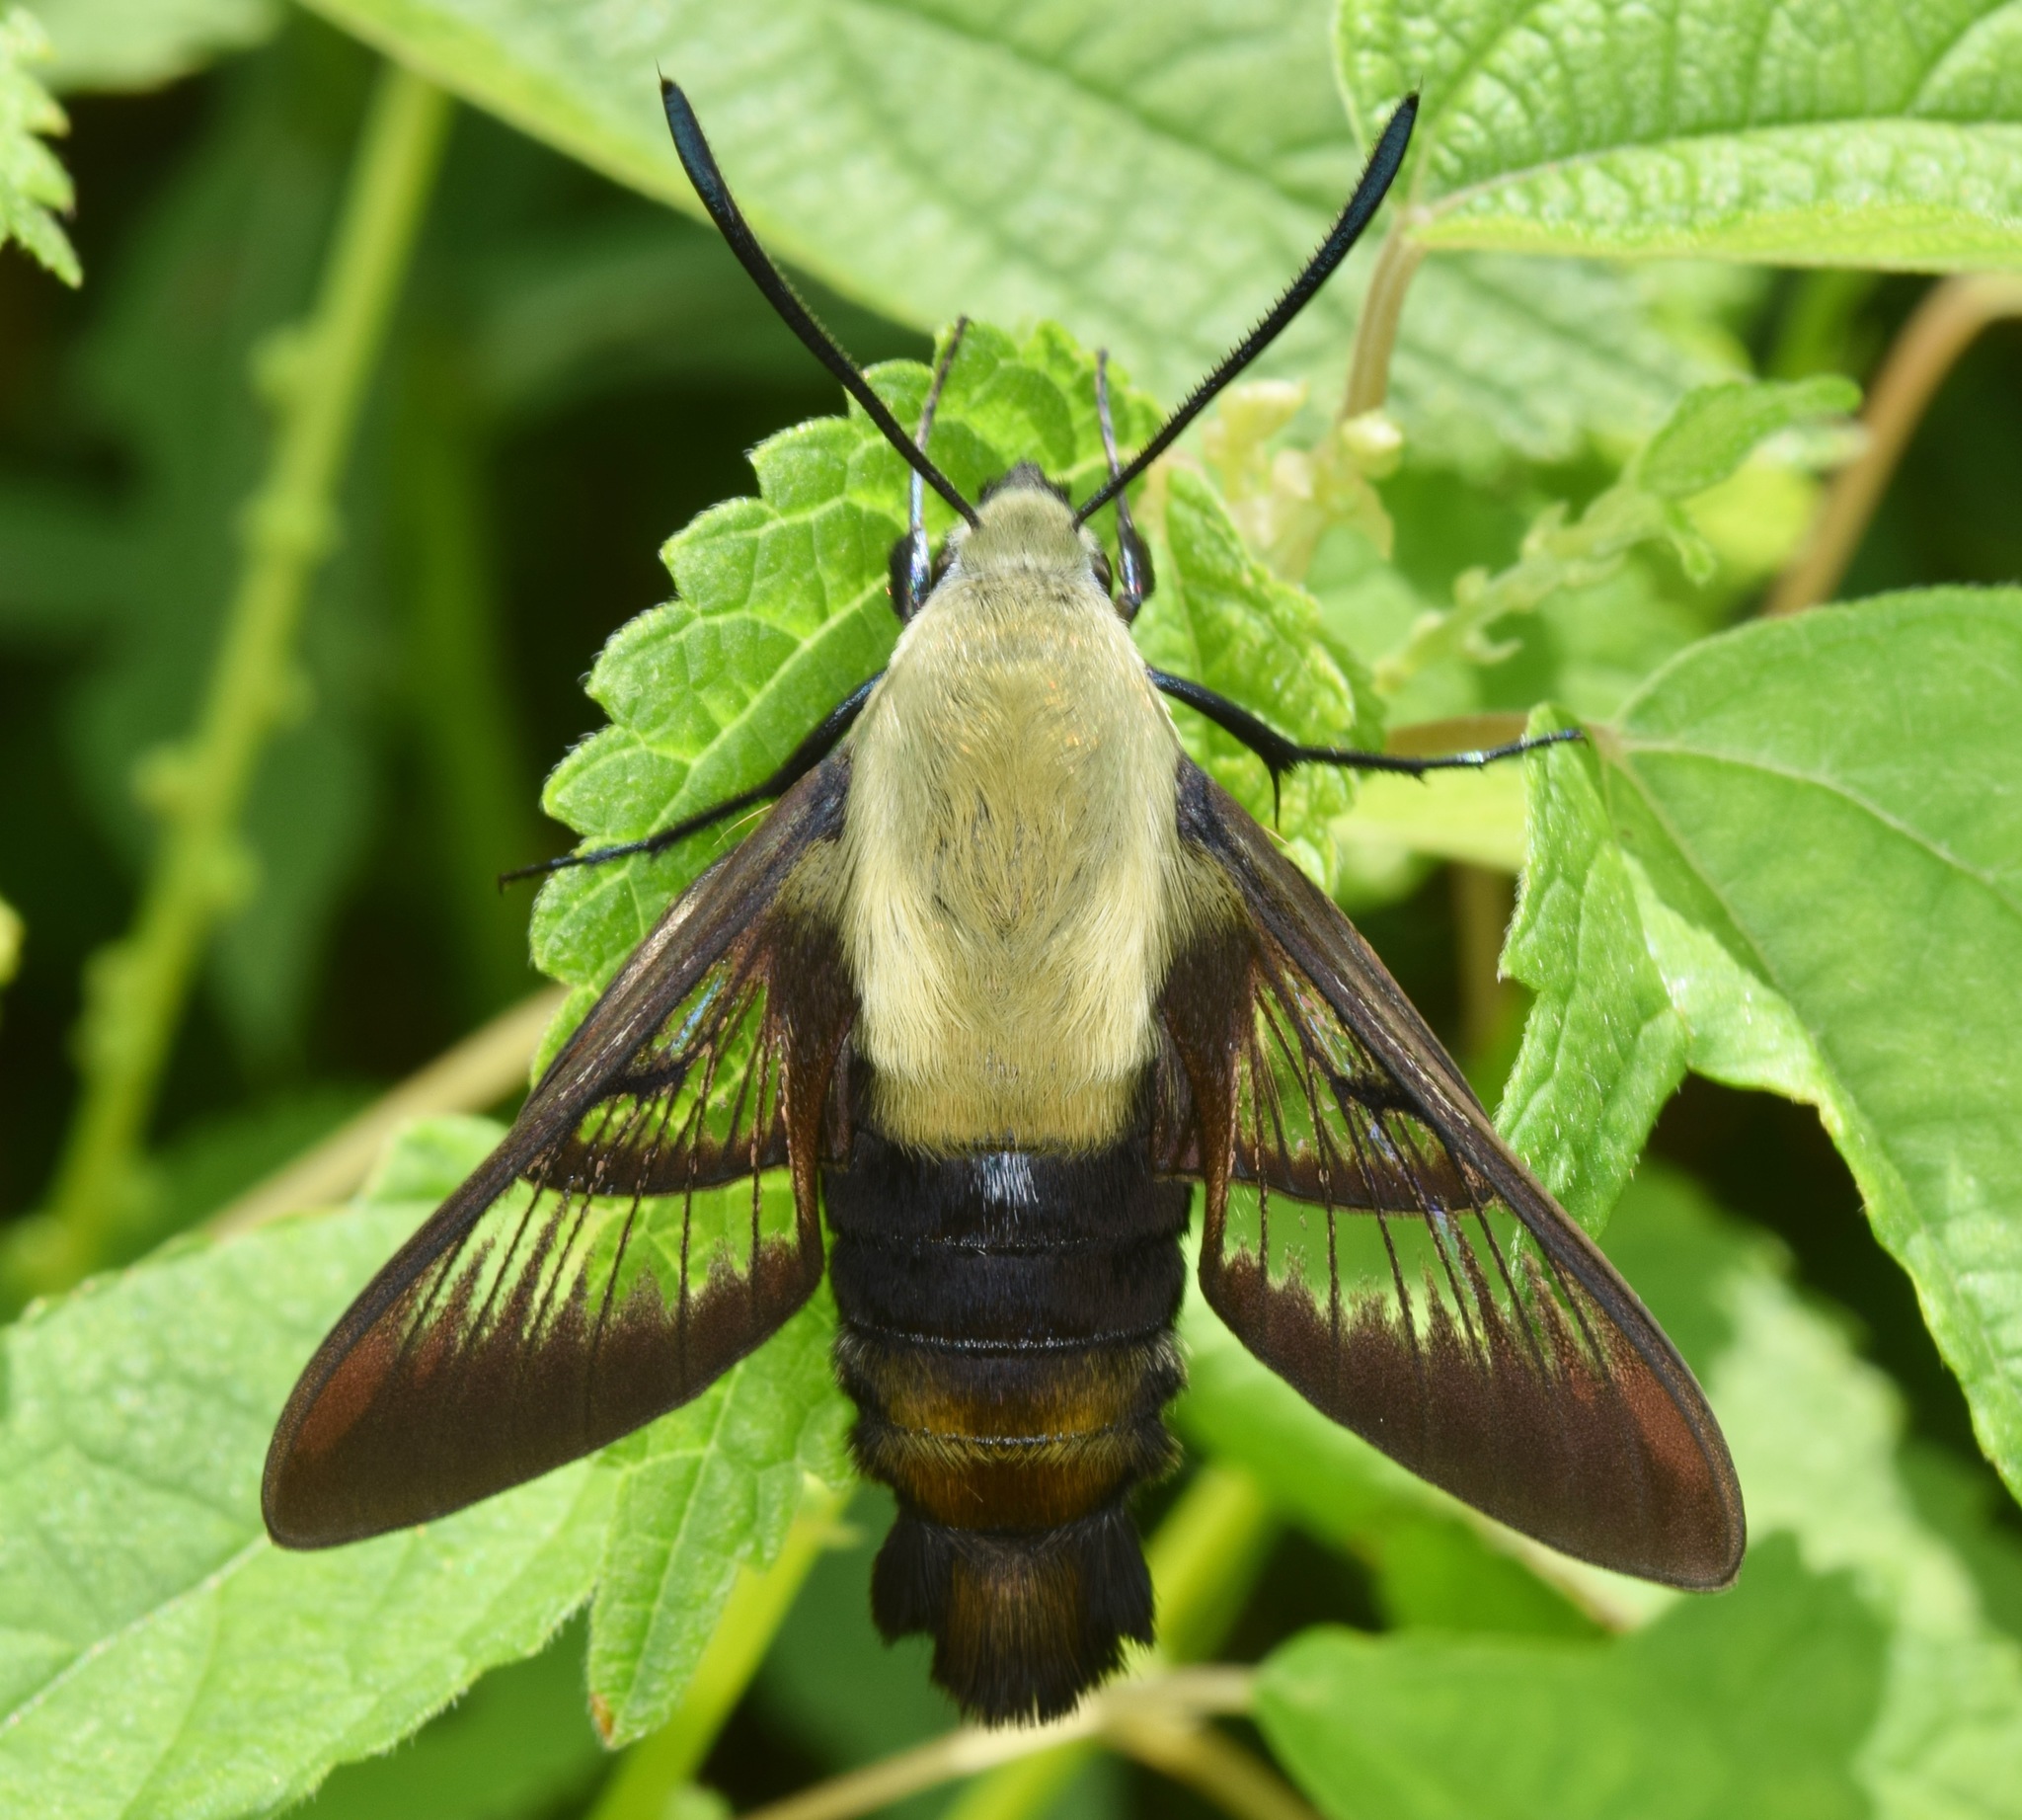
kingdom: Animalia
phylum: Arthropoda
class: Insecta
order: Lepidoptera
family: Sphingidae
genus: Hemaris
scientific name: Hemaris diffinis
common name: Bumblebee moth
